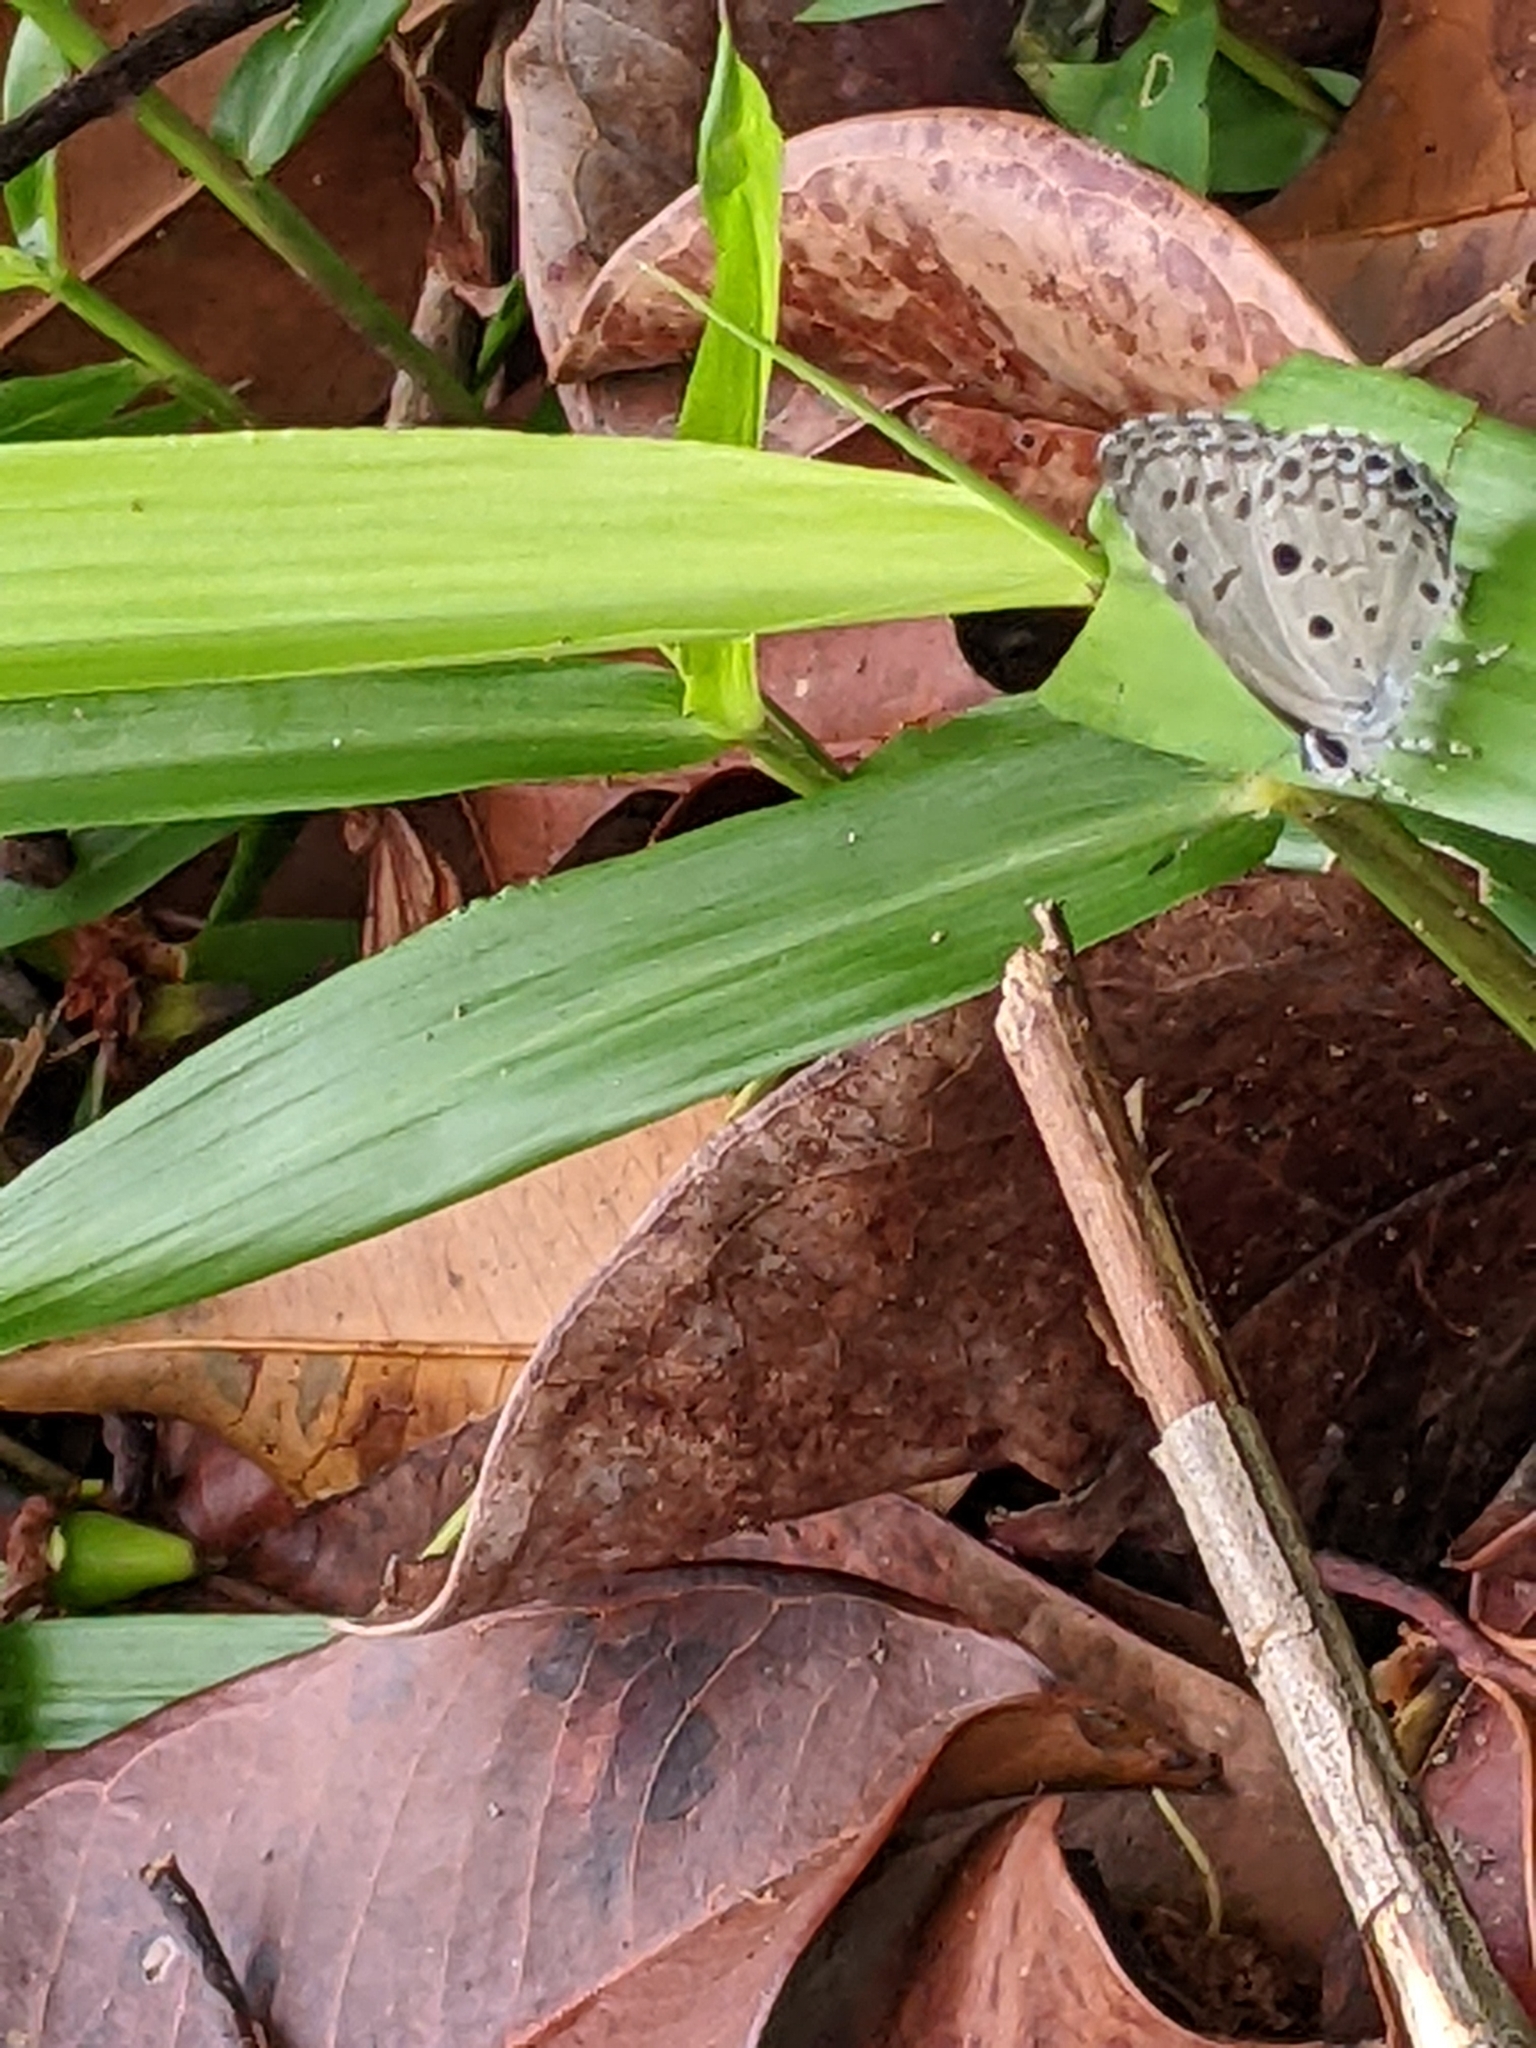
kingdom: Animalia
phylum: Arthropoda
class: Insecta
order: Lepidoptera
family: Lycaenidae
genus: Acytolepis
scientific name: Acytolepis puspa
